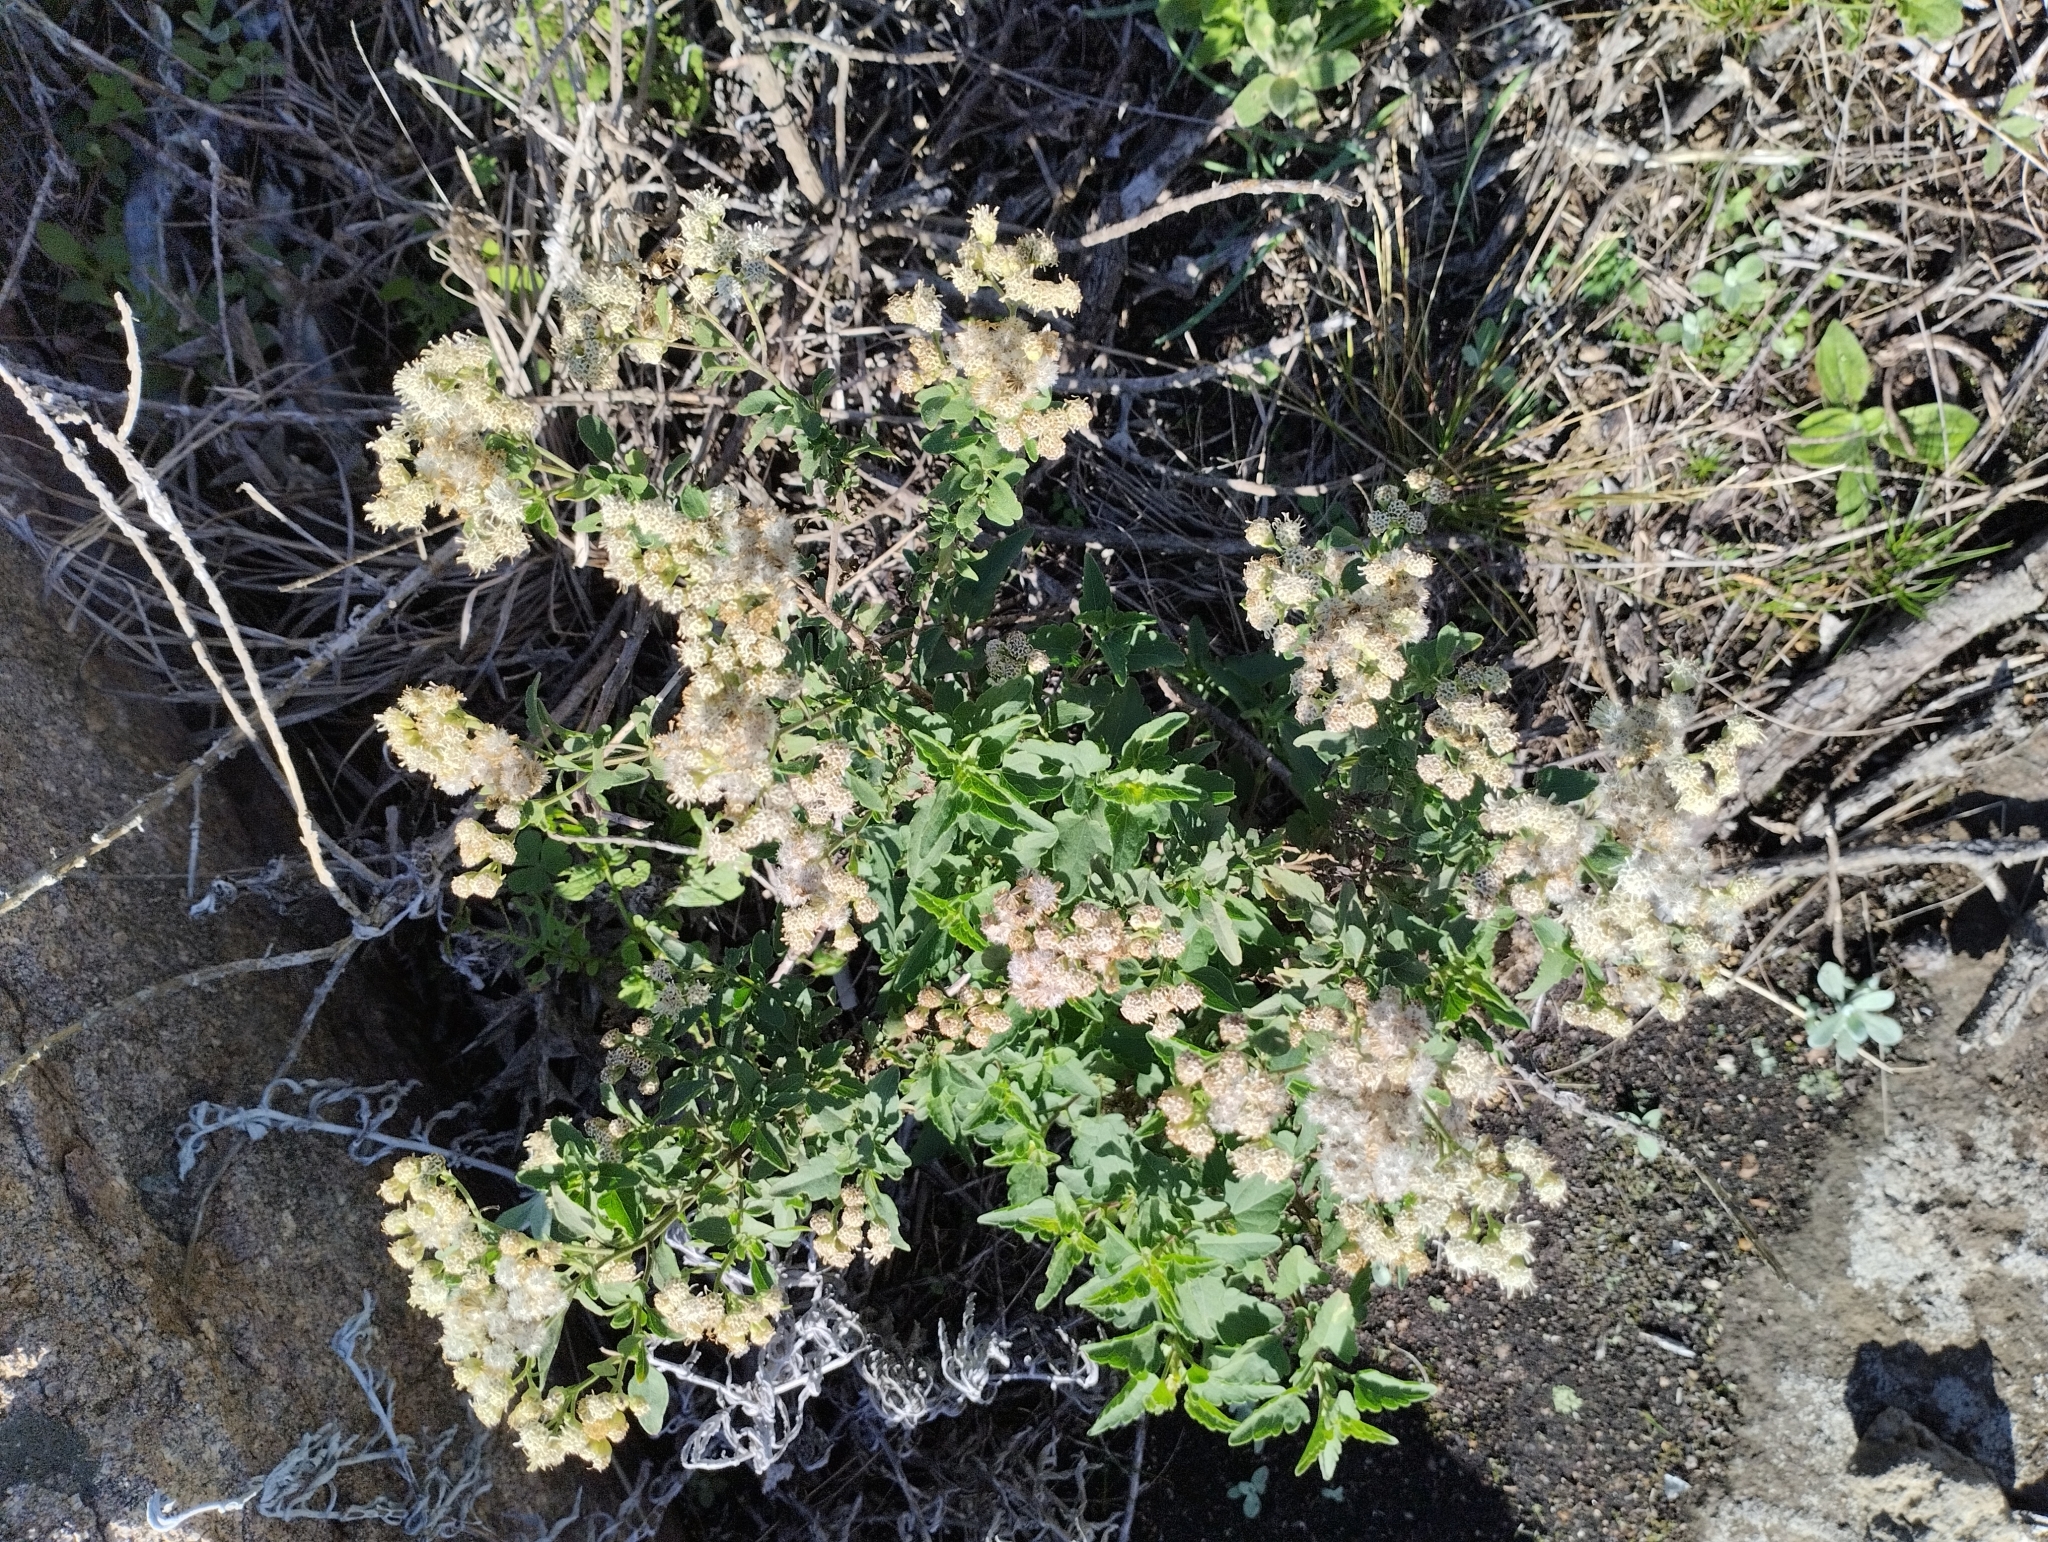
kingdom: Plantae
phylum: Tracheophyta
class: Magnoliopsida
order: Asterales
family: Asteraceae
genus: Hatschbachiella
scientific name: Hatschbachiella tweedieana
